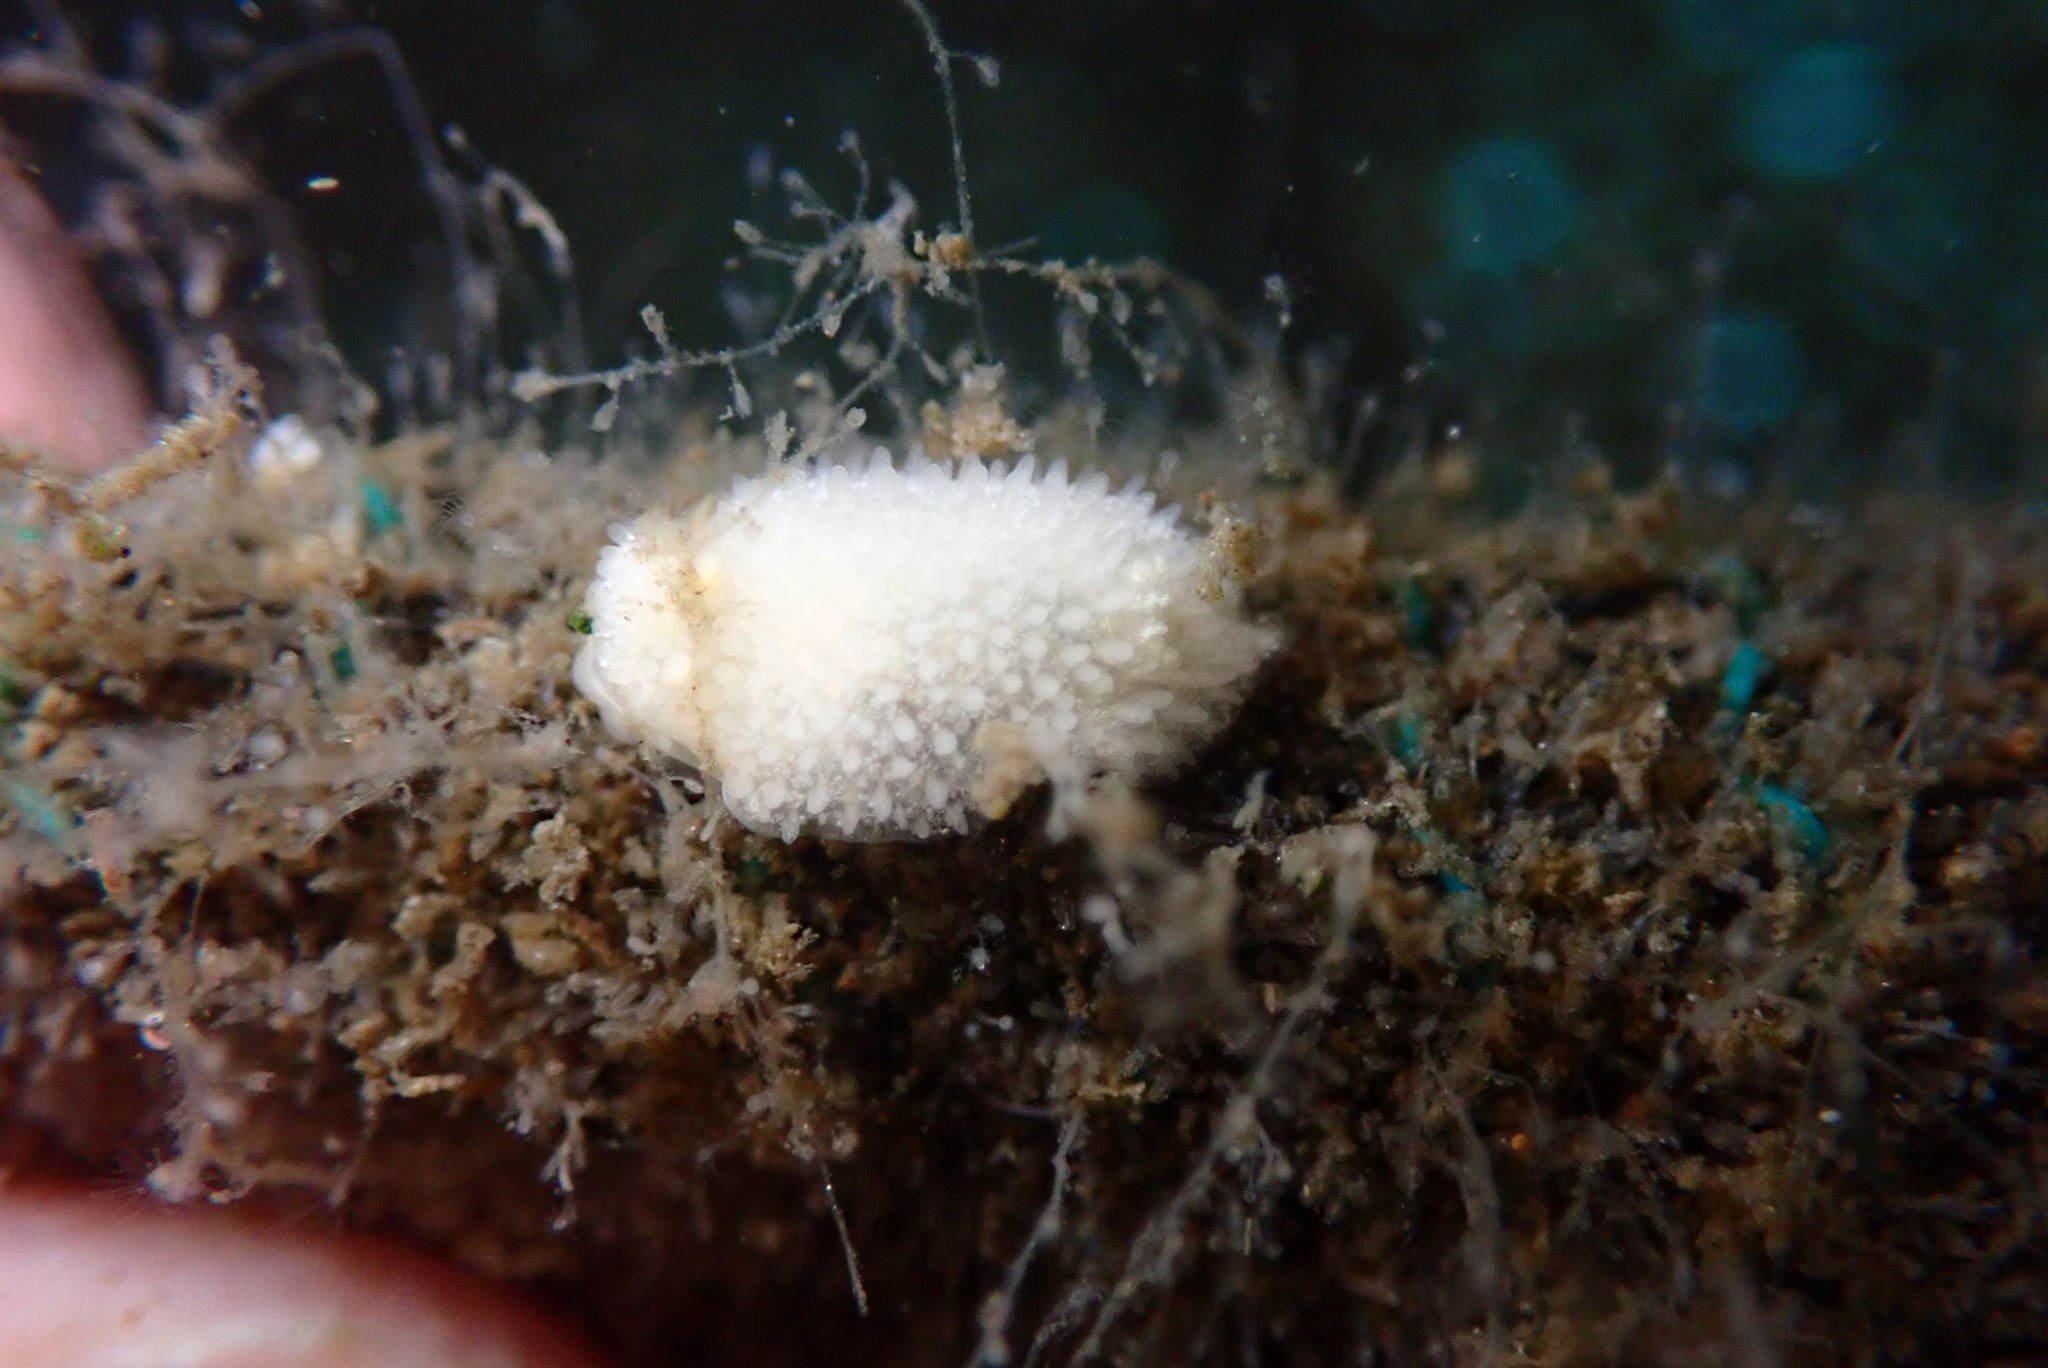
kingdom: Animalia
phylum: Mollusca
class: Gastropoda
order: Nudibranchia
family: Calycidorididae
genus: Diaphorodoris
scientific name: Diaphorodoris lirulatocauda
